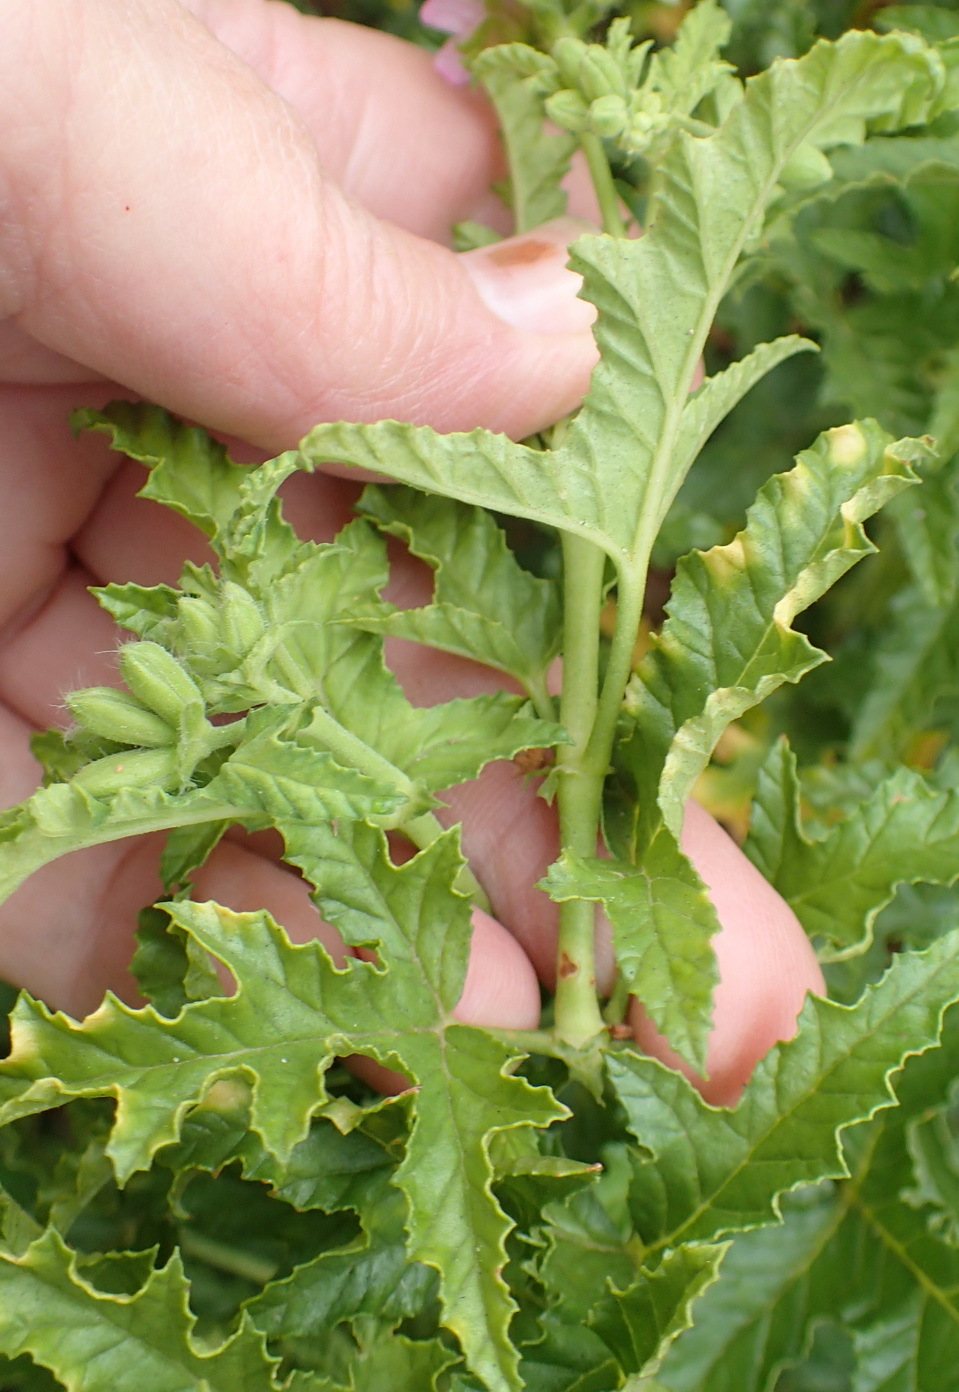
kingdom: Plantae
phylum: Tracheophyta
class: Magnoliopsida
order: Geraniales
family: Geraniaceae
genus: Pelargonium
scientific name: Pelargonium glutinosum
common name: Pheasant-foot geranium
